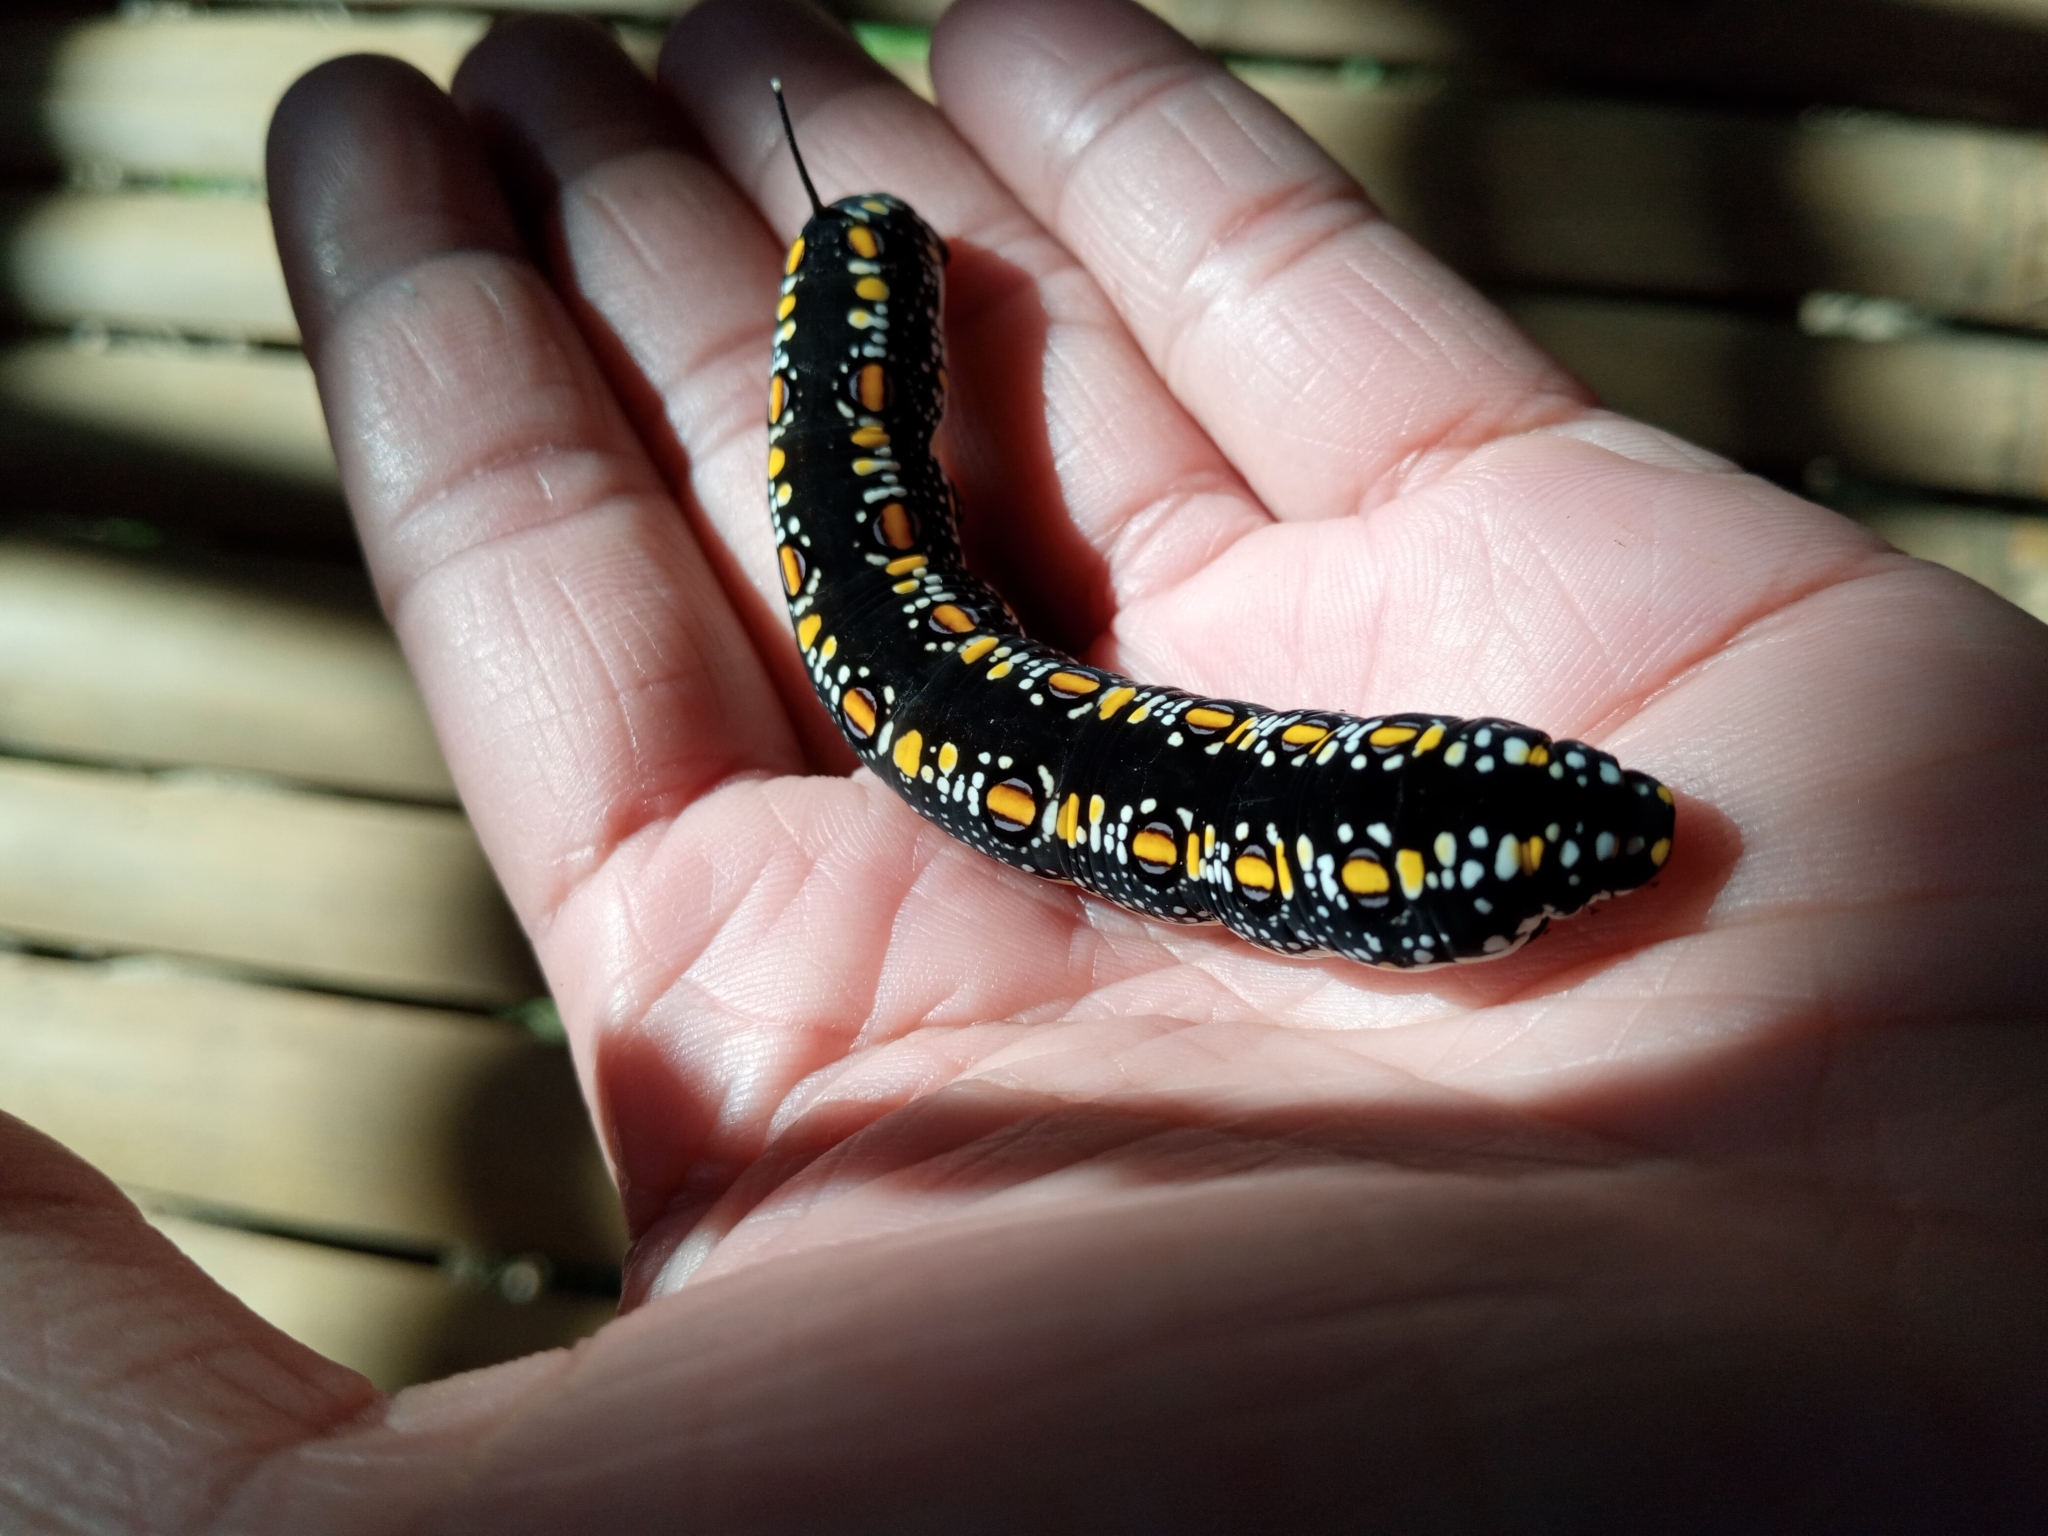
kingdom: Animalia
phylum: Arthropoda
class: Insecta
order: Lepidoptera
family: Sphingidae
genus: Theretra
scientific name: Theretra oldenlandiae
